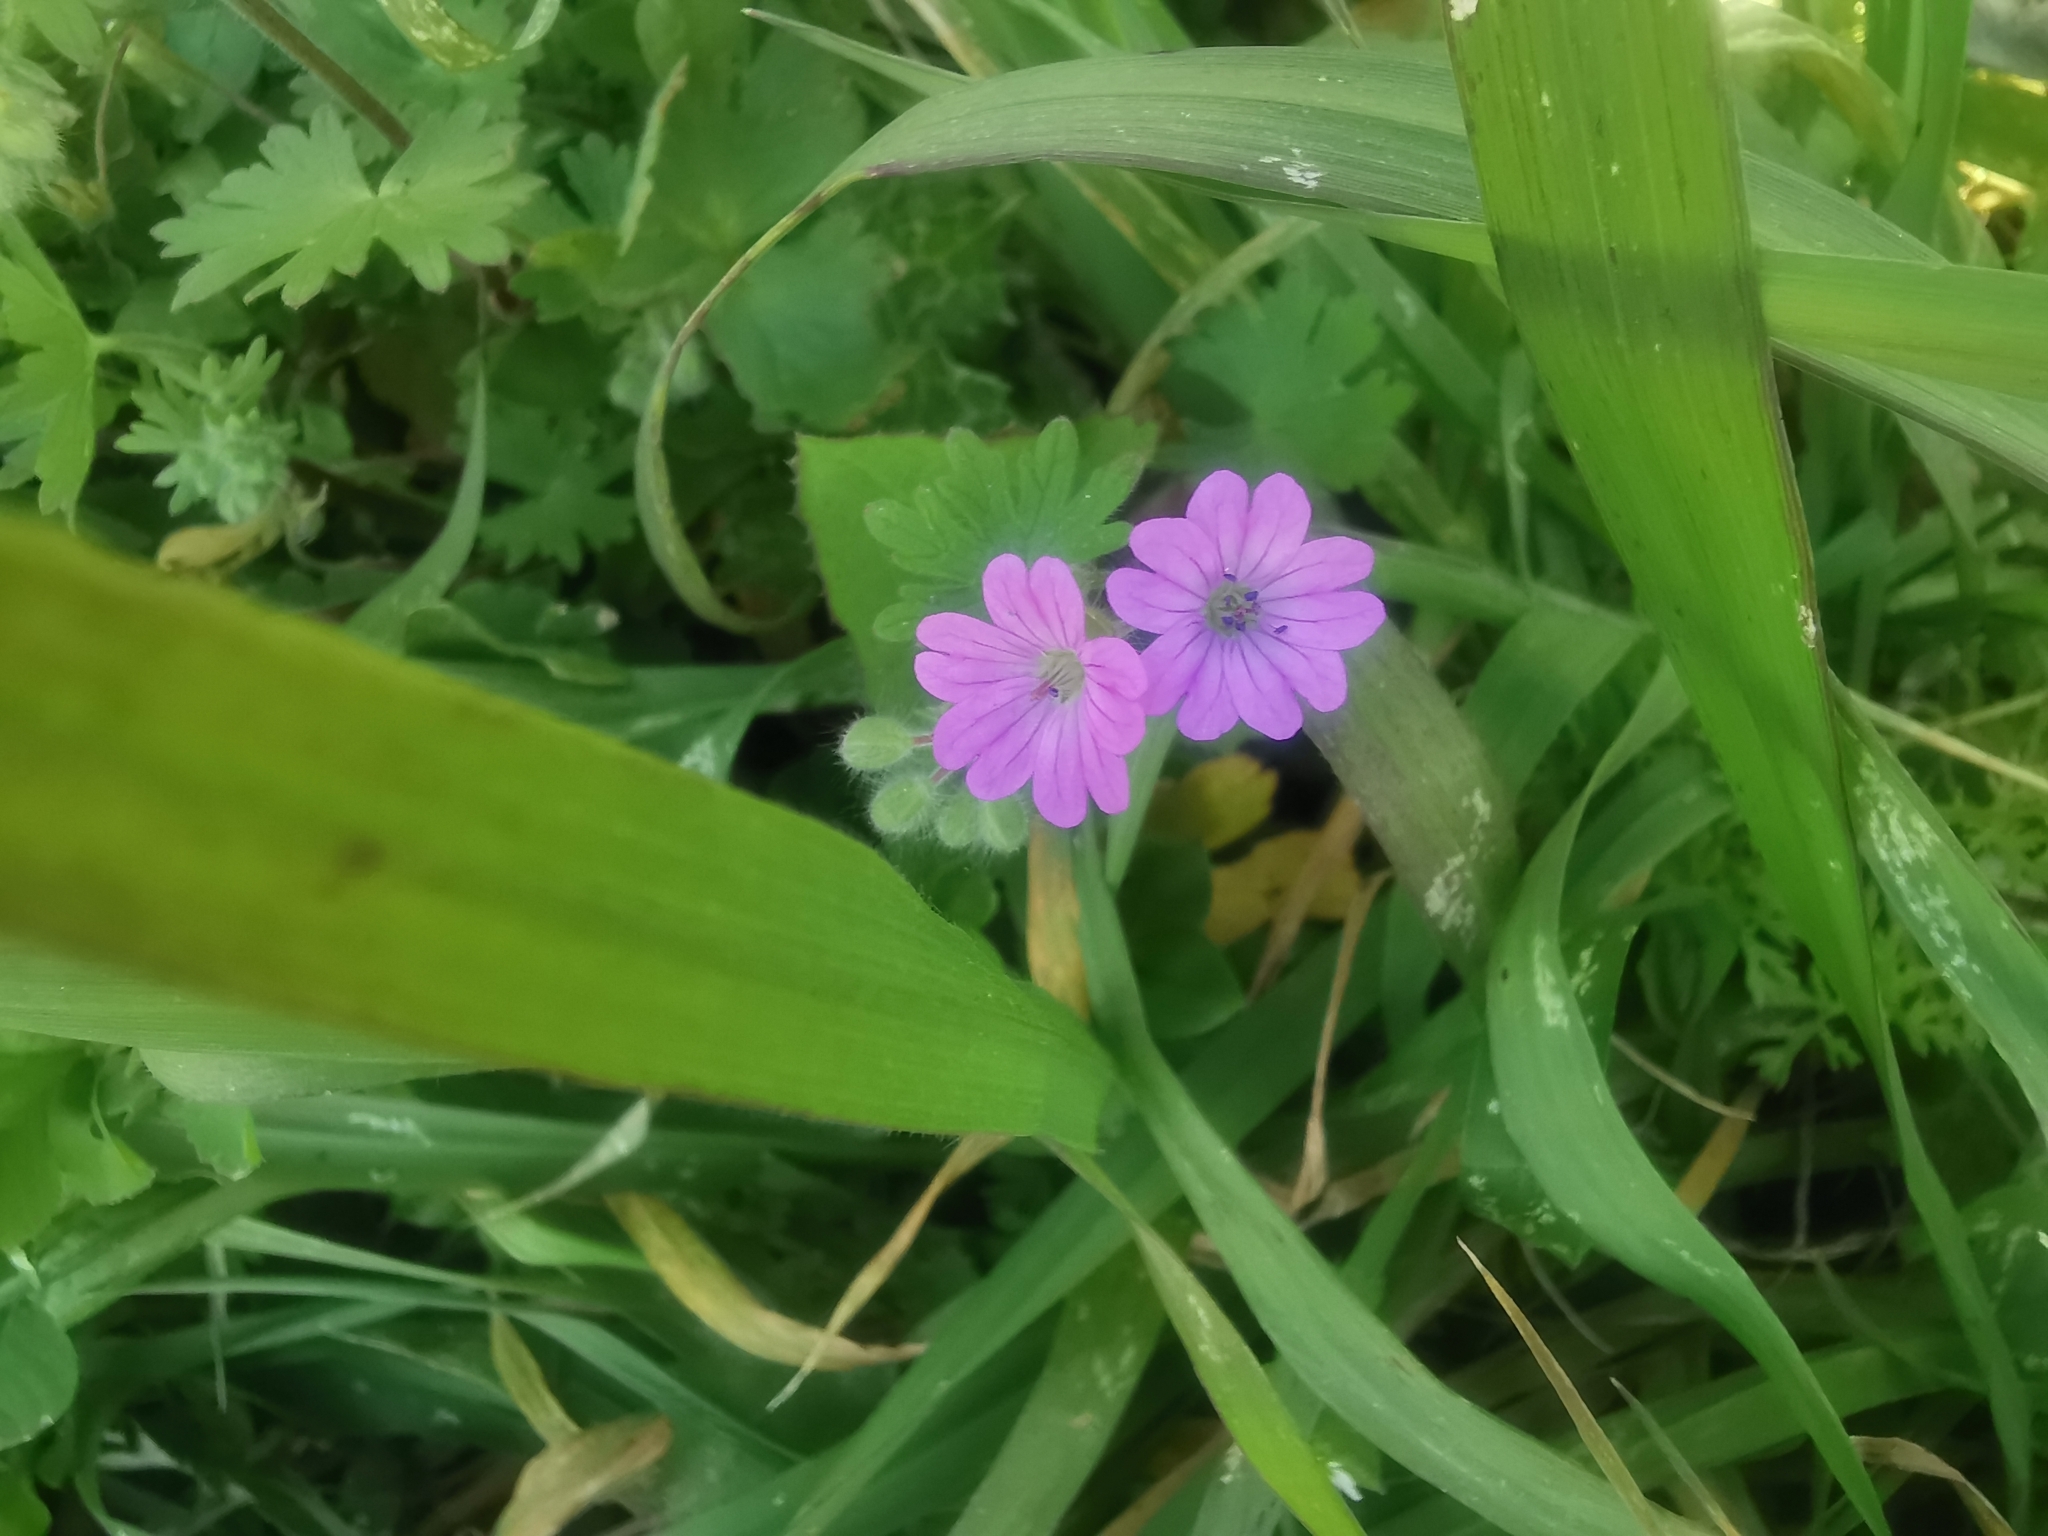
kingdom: Plantae
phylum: Tracheophyta
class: Magnoliopsida
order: Geraniales
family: Geraniaceae
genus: Geranium
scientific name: Geranium molle
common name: Dove's-foot crane's-bill
